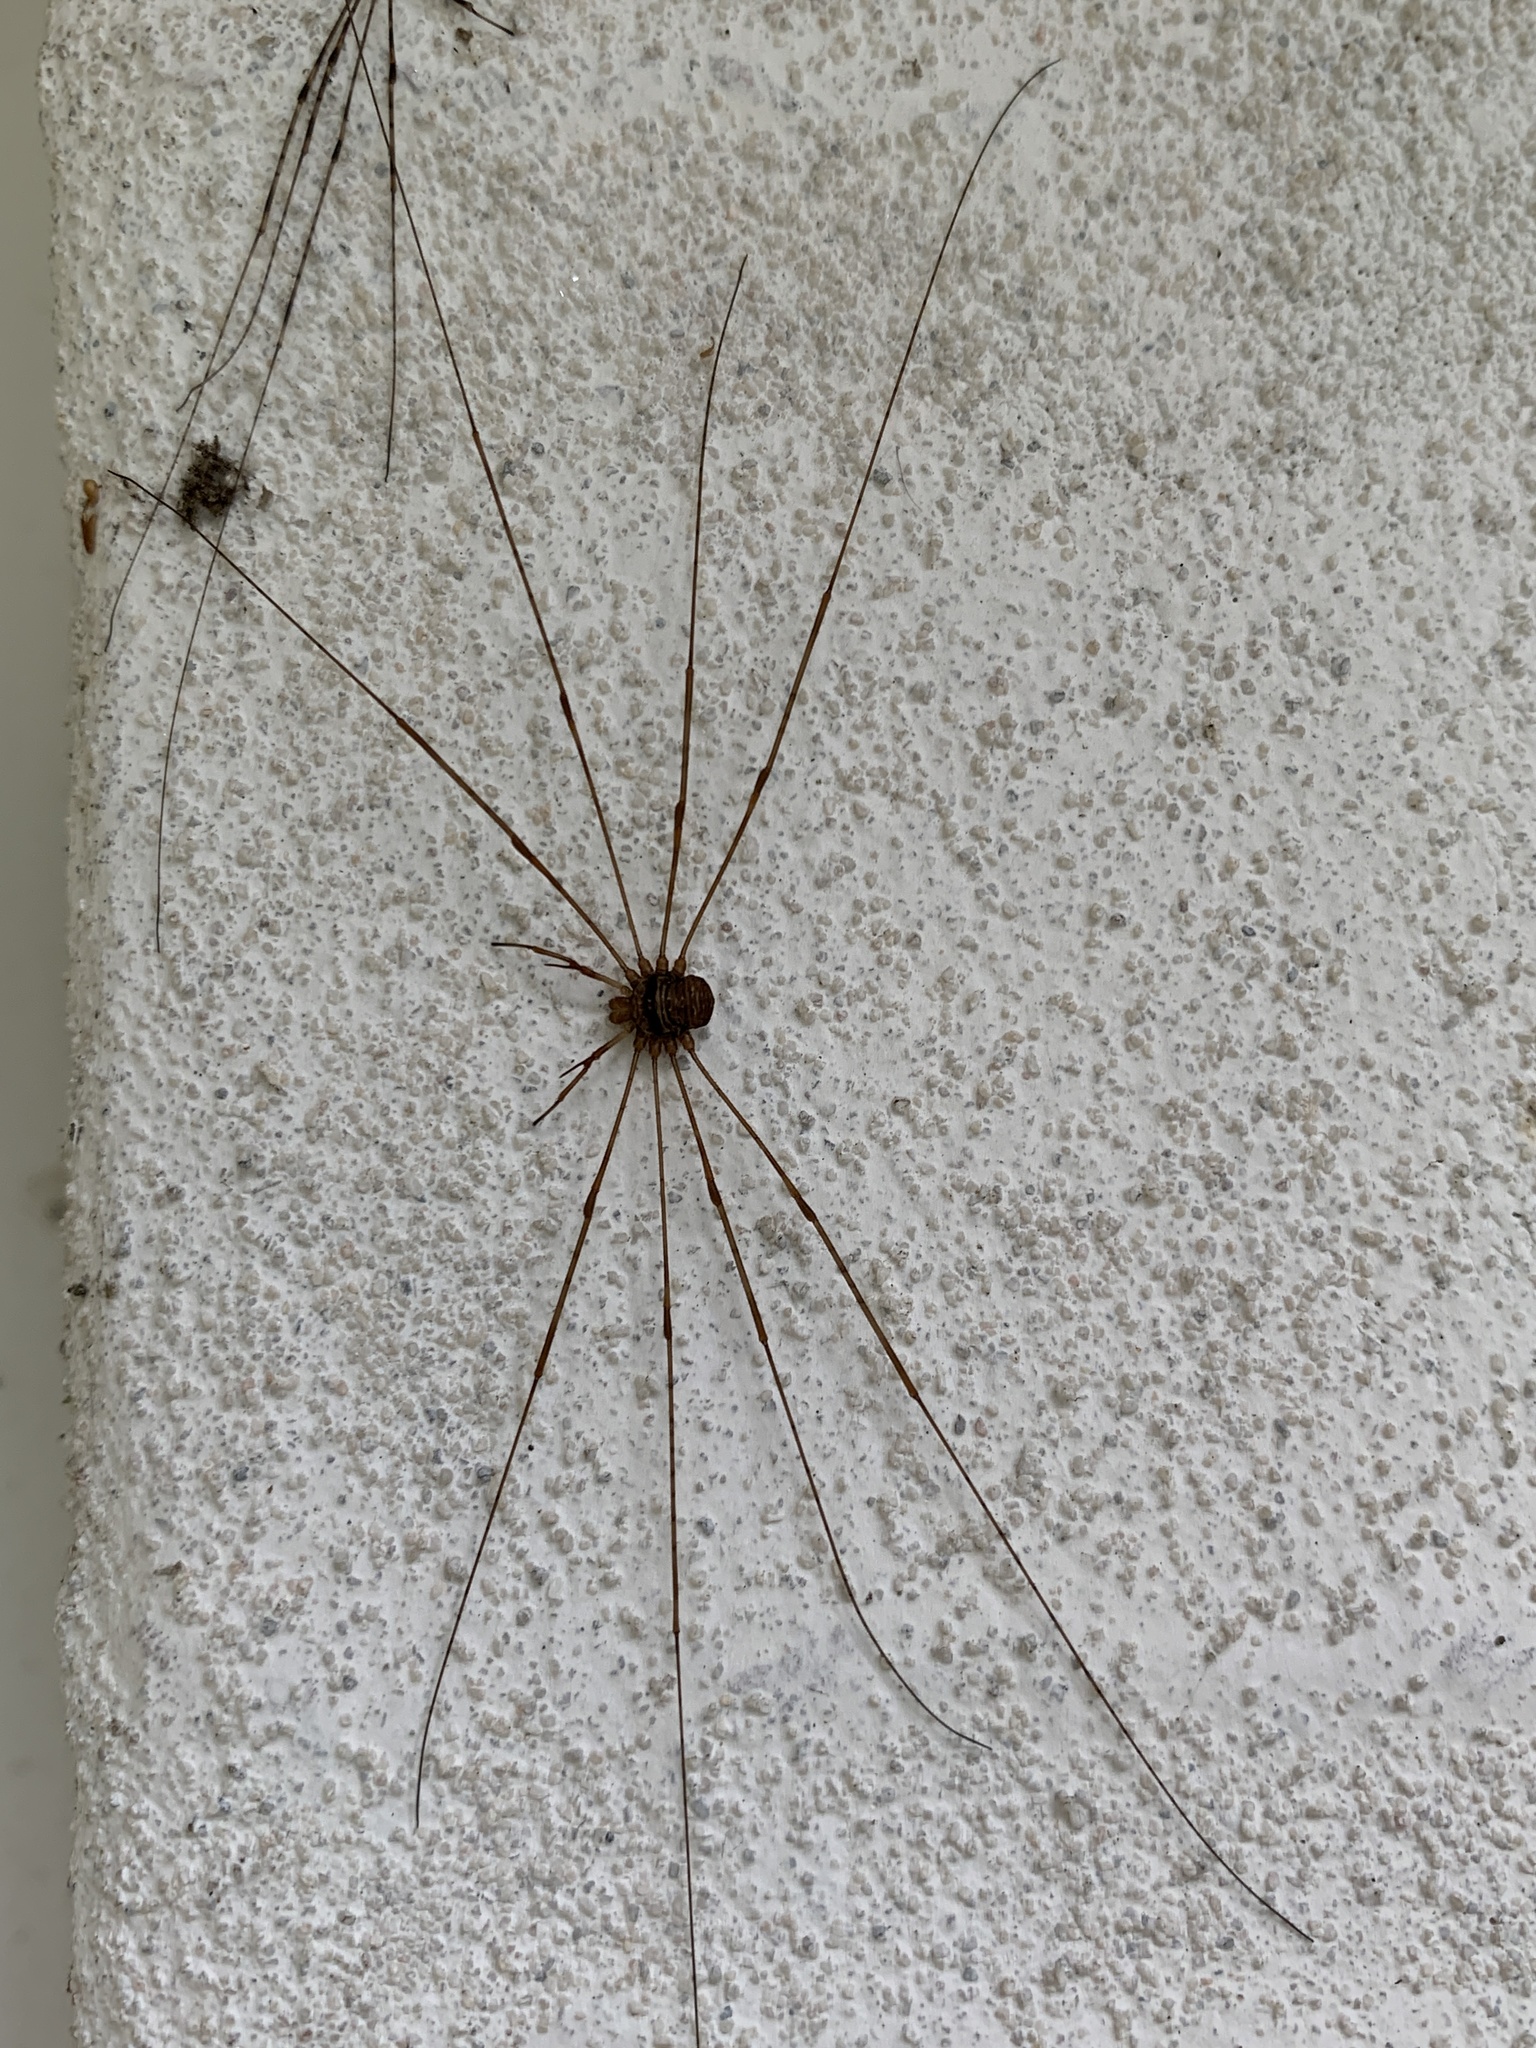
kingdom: Animalia
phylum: Arthropoda
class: Arachnida
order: Opiliones
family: Phalangiidae
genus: Dicranopalpus
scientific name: Dicranopalpus ramosus
